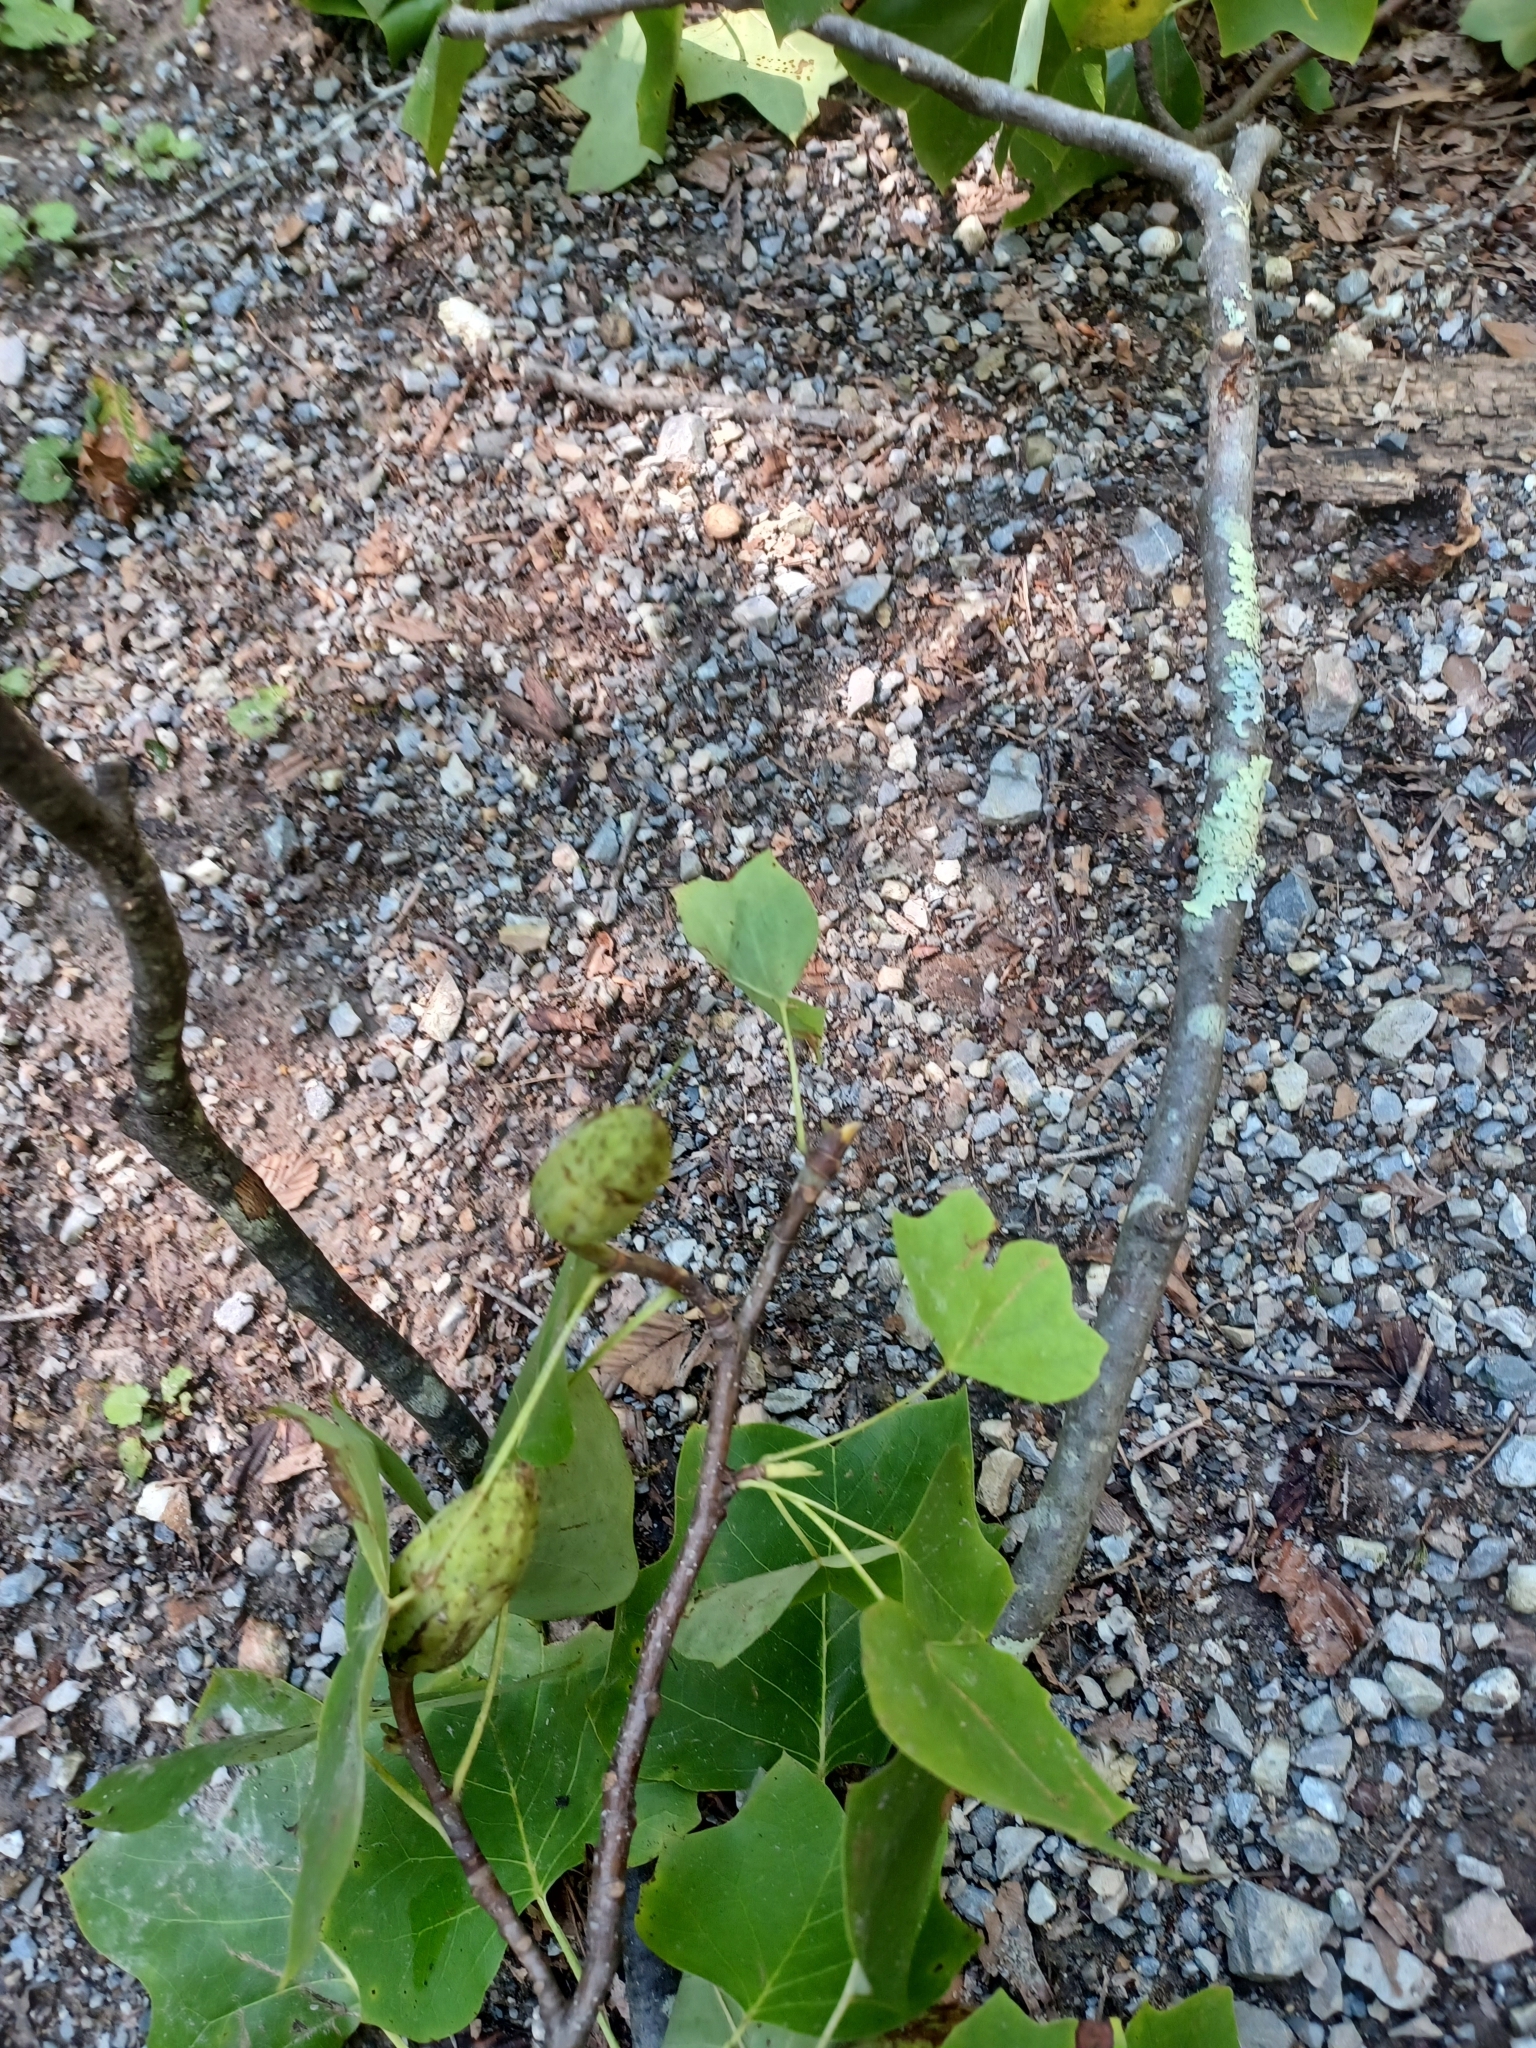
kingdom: Plantae
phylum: Tracheophyta
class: Magnoliopsida
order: Magnoliales
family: Magnoliaceae
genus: Liriodendron
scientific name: Liriodendron tulipifera
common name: Tulip tree
